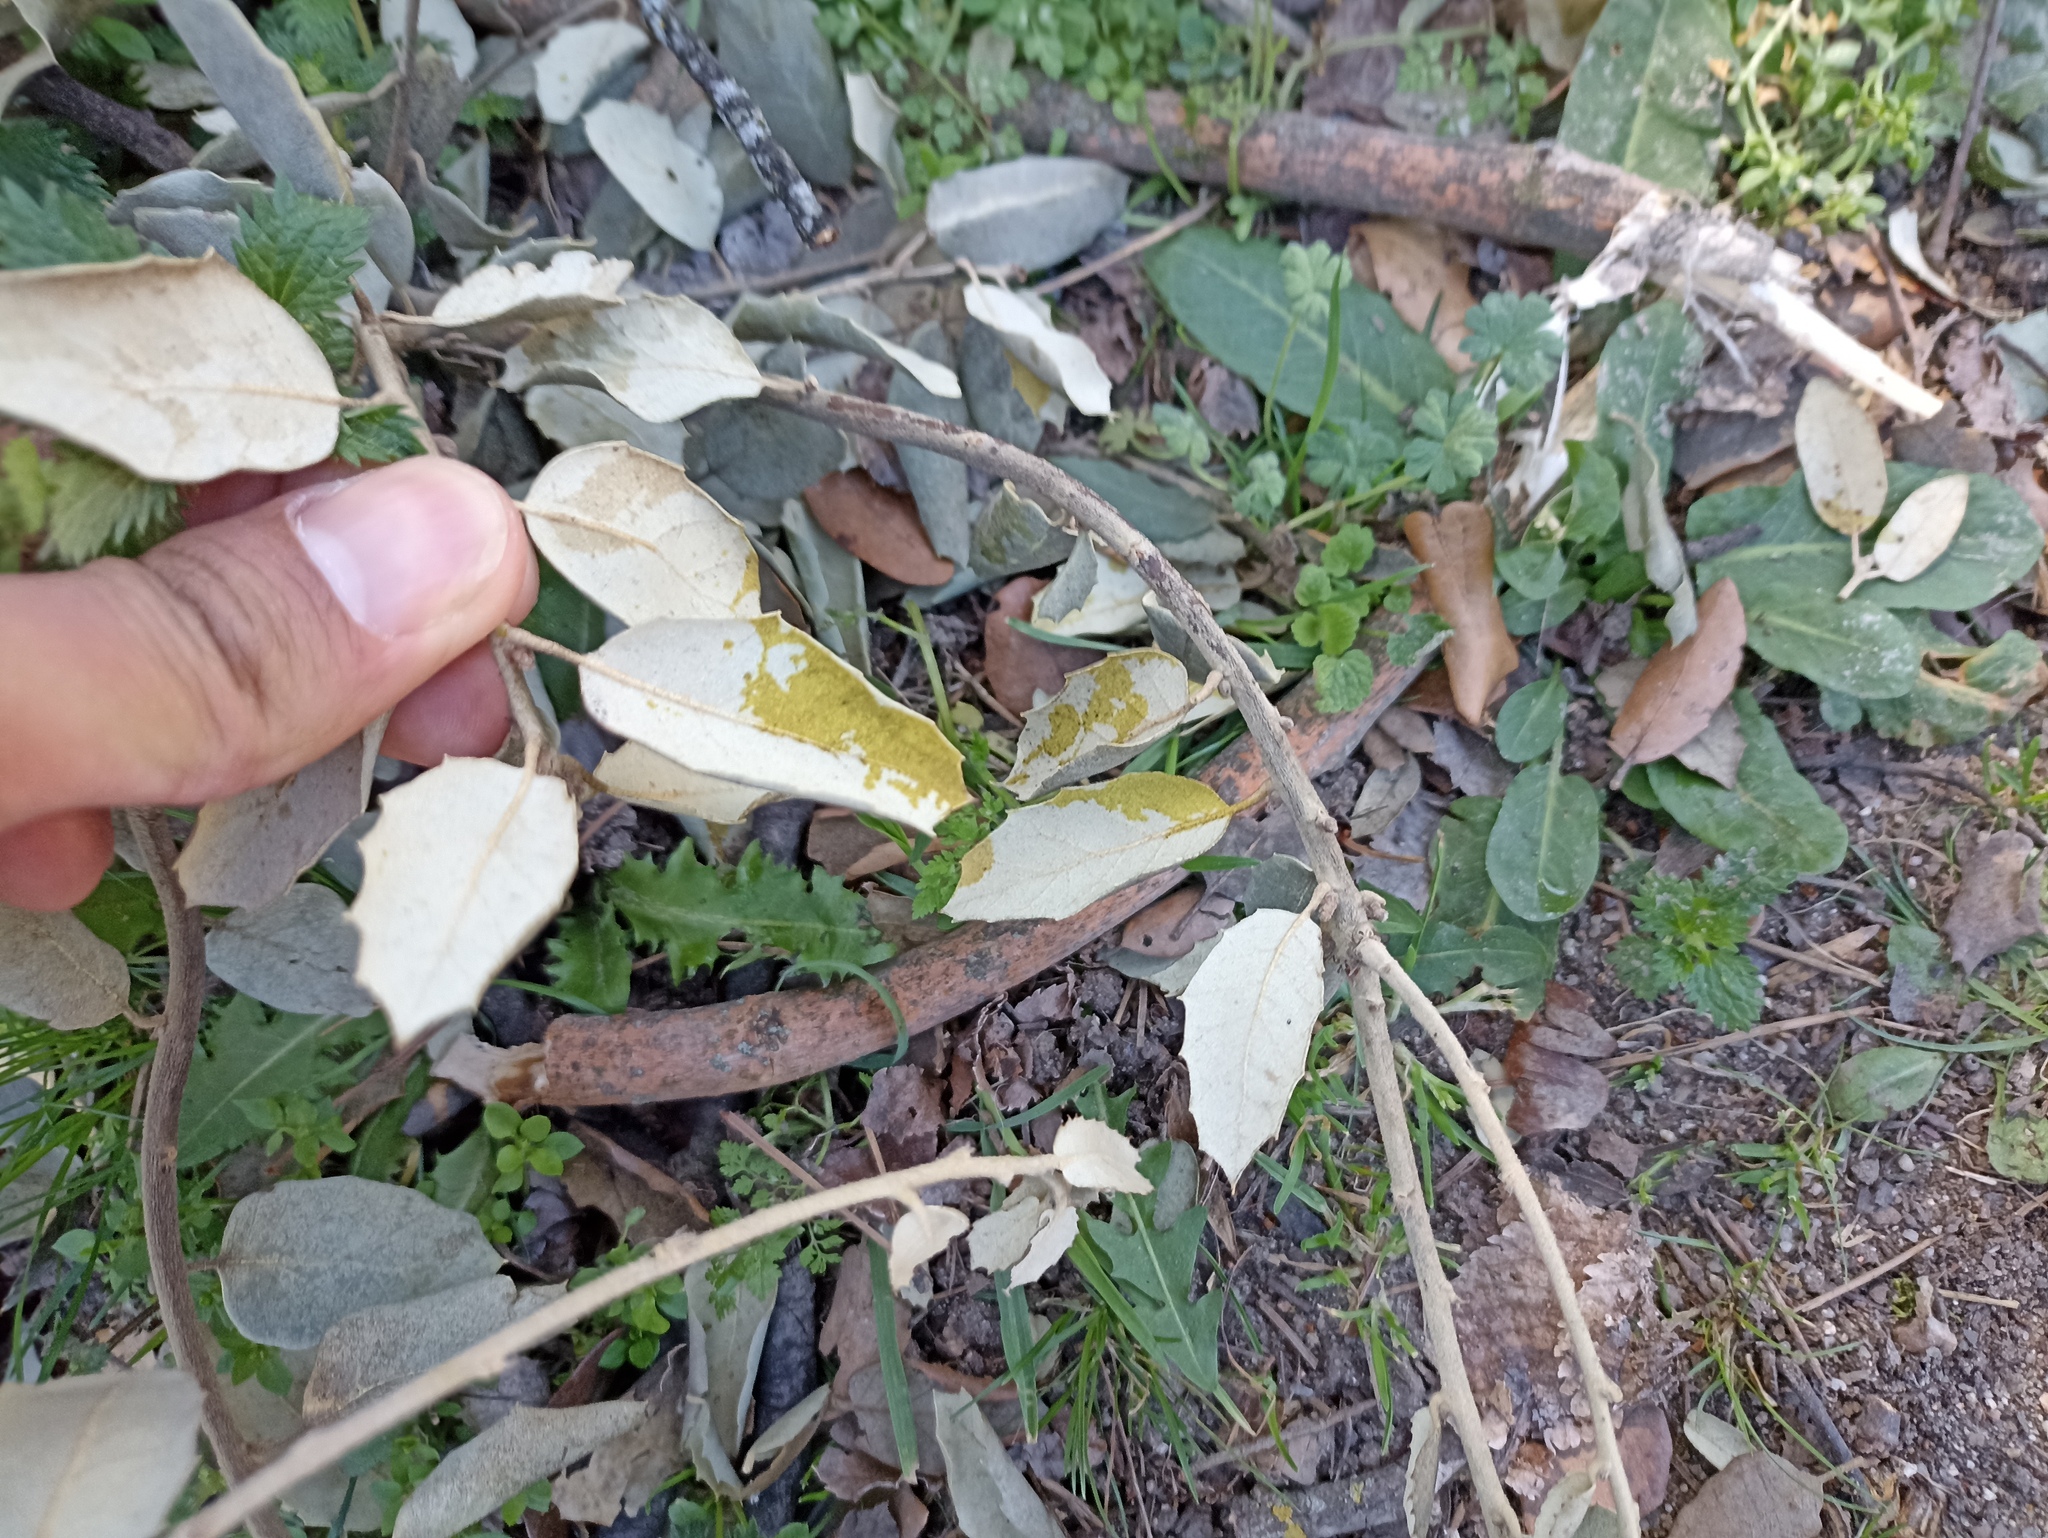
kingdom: Animalia
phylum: Arthropoda
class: Arachnida
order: Trombidiformes
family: Eriophyidae
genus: Aceria
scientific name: Aceria ilicis
